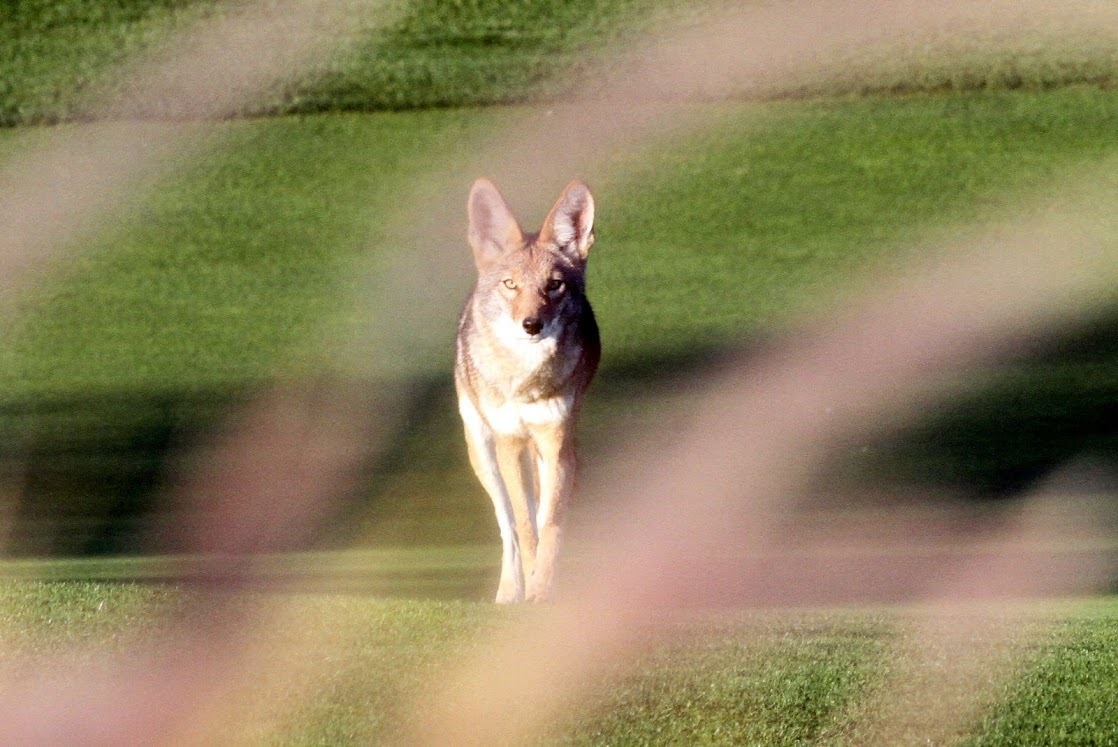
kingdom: Animalia
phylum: Chordata
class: Mammalia
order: Carnivora
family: Canidae
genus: Canis
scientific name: Canis latrans
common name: Coyote
